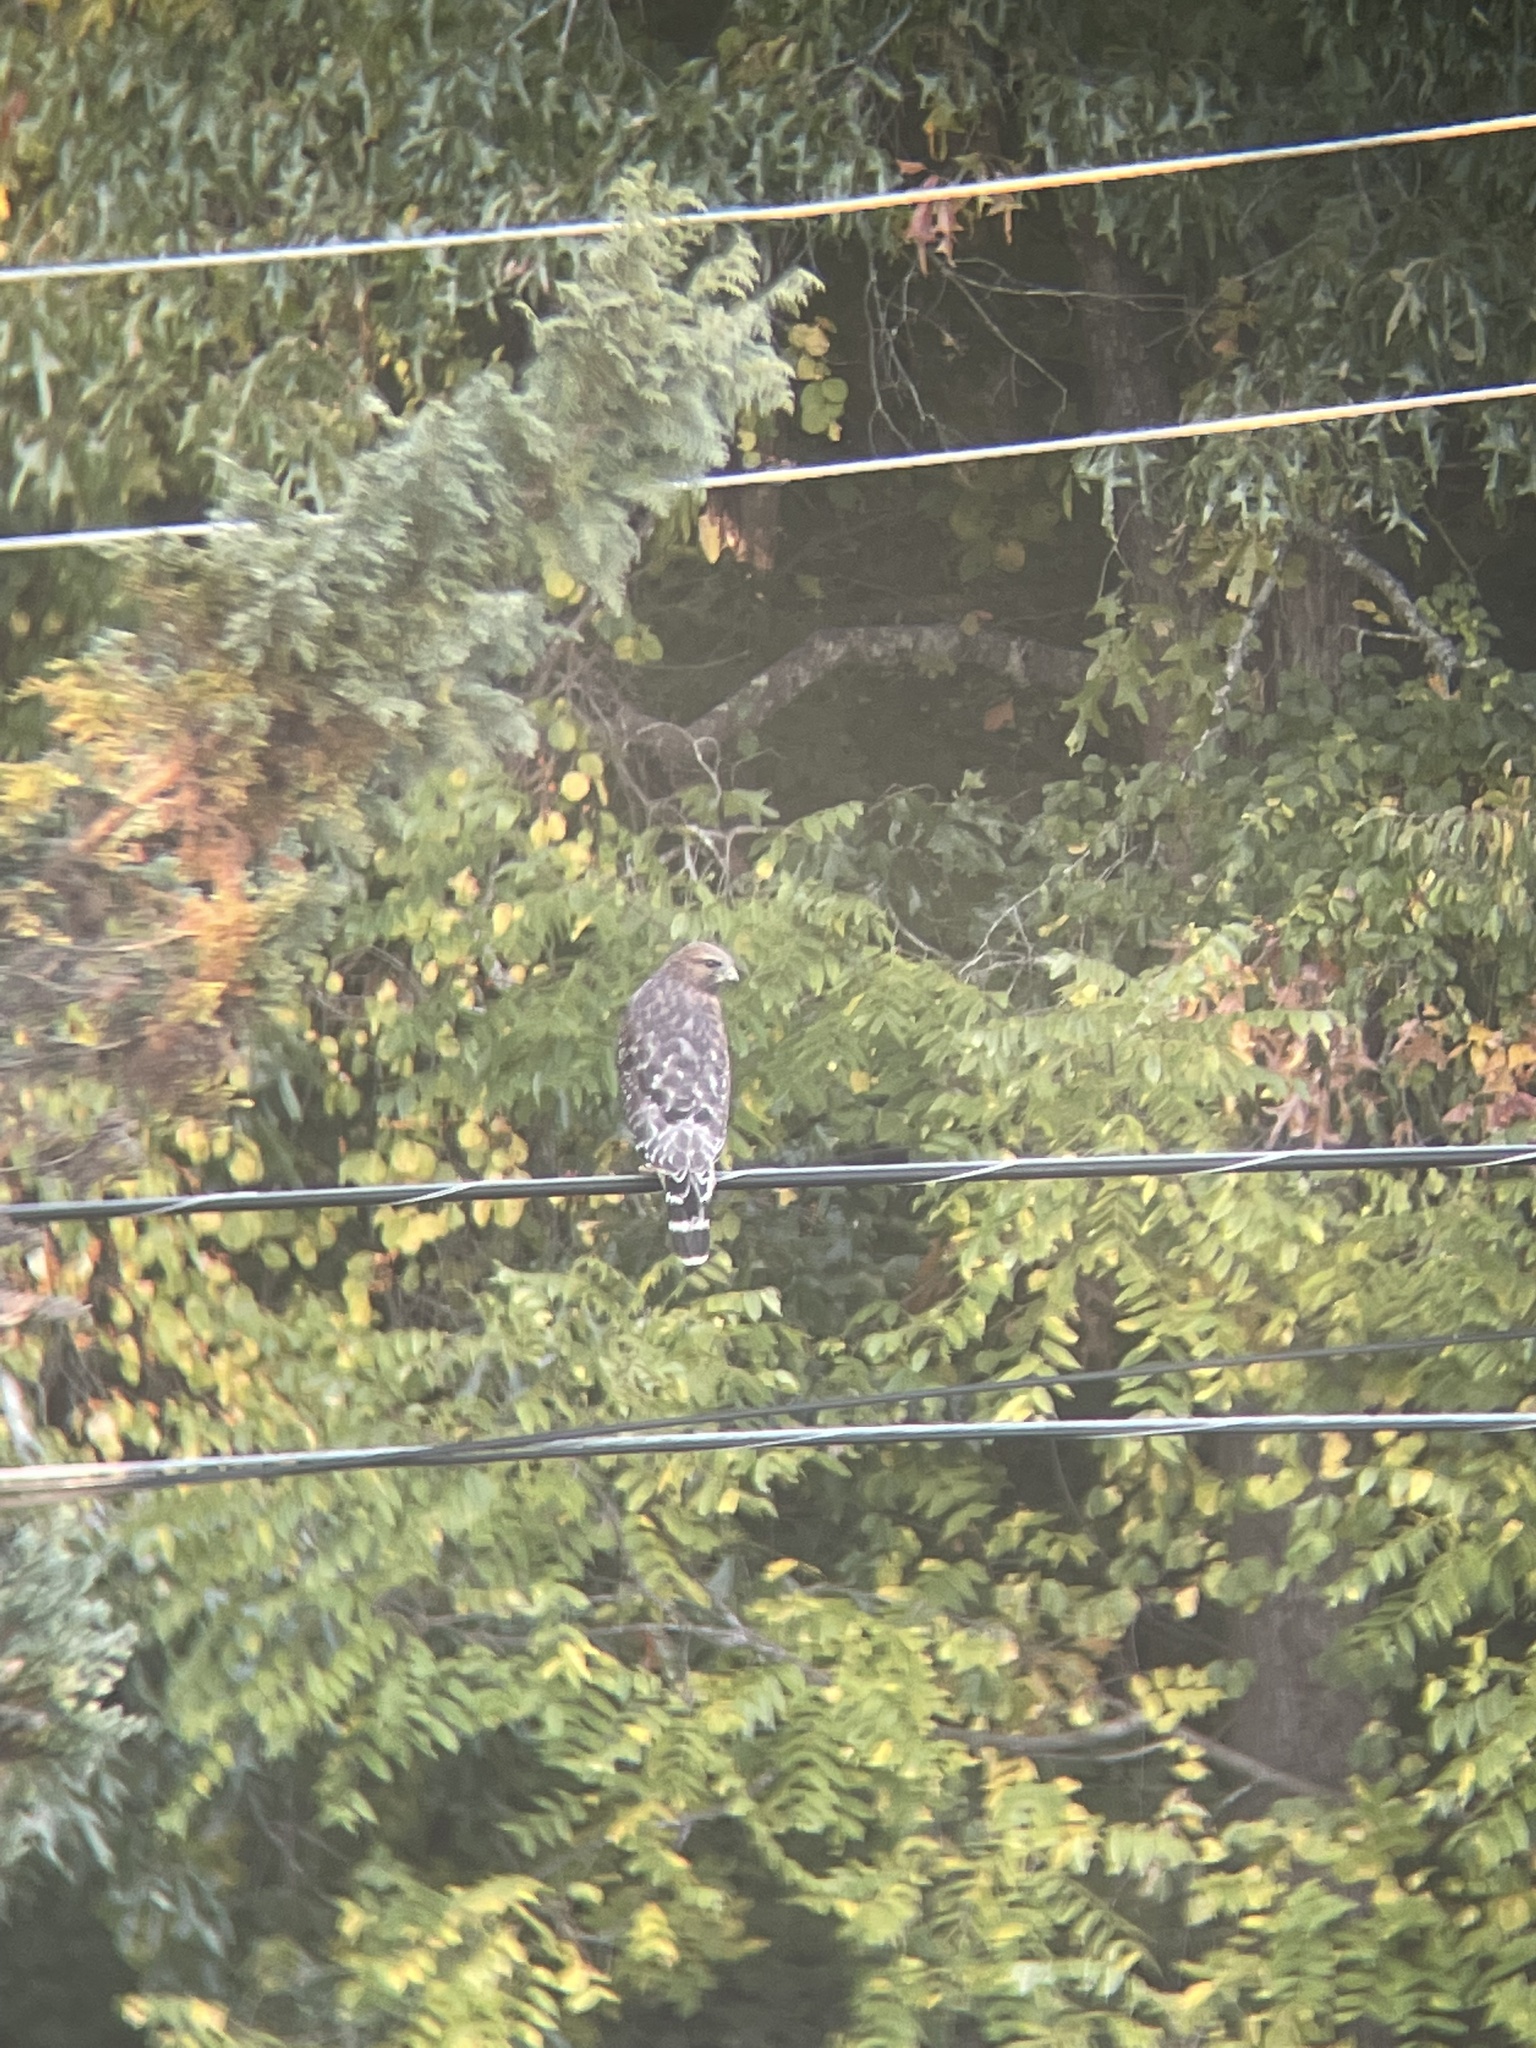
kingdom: Animalia
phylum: Chordata
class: Aves
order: Accipitriformes
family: Accipitridae
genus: Buteo
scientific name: Buteo lineatus
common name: Red-shouldered hawk
